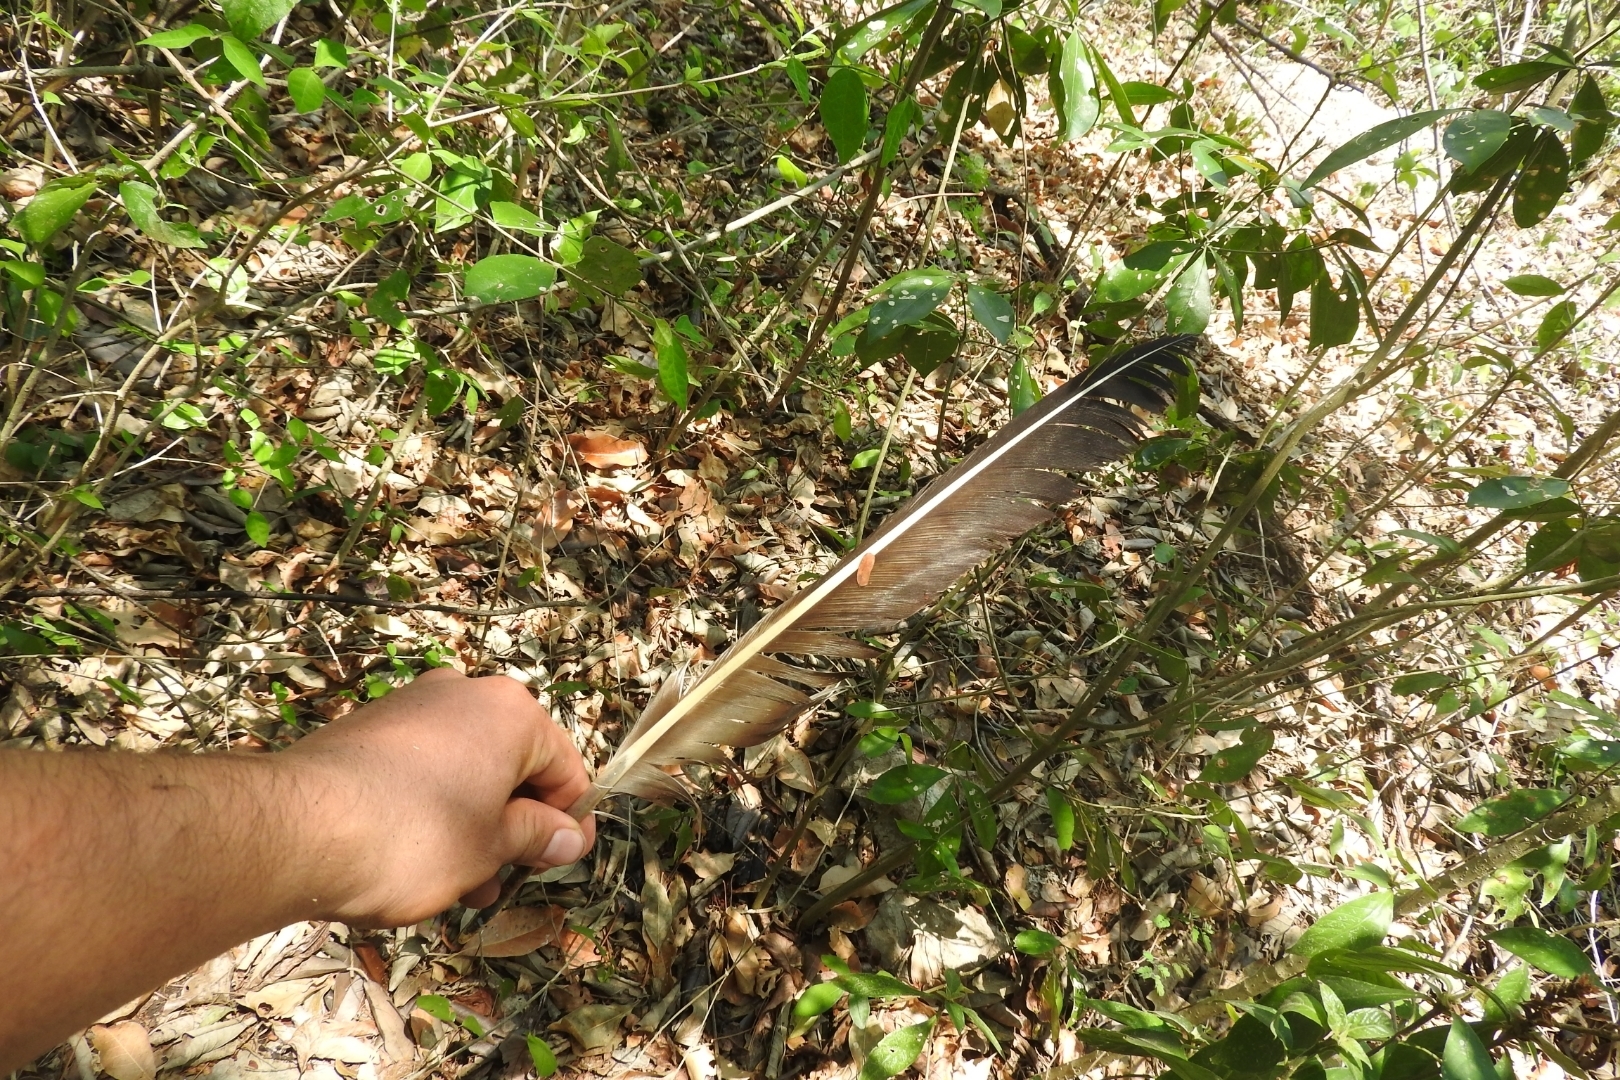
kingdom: Animalia
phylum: Chordata
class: Aves
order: Accipitriformes
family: Cathartidae
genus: Coragyps
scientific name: Coragyps atratus
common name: Black vulture
